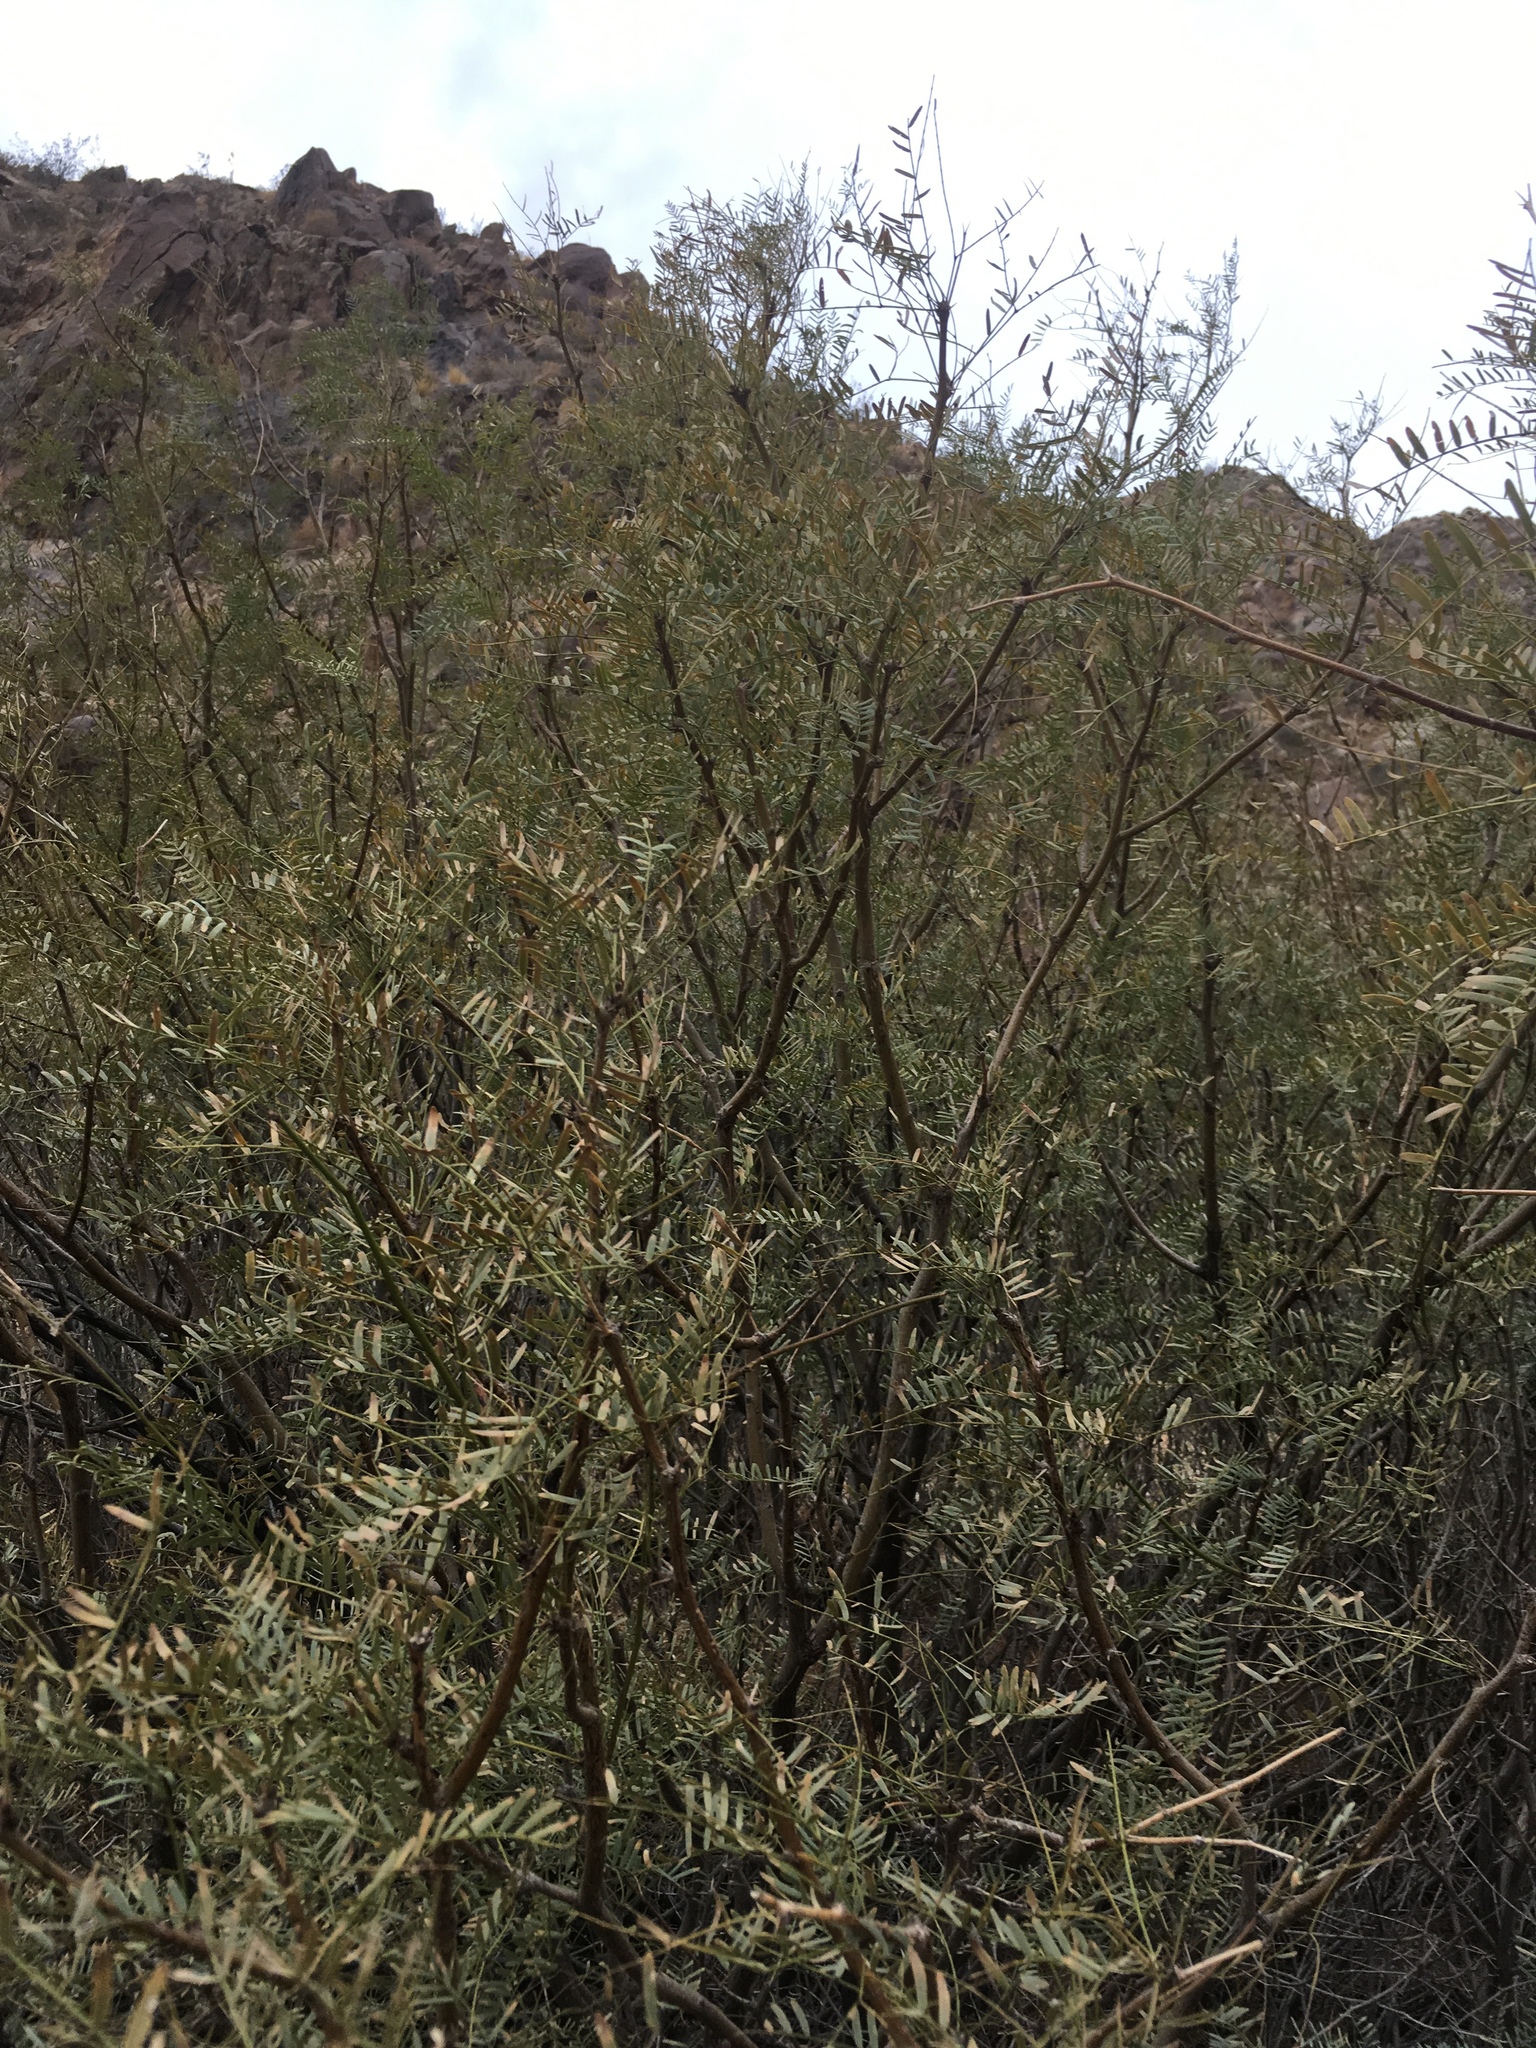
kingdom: Plantae
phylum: Tracheophyta
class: Magnoliopsida
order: Fabales
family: Fabaceae
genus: Prosopis
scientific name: Prosopis pubescens
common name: Screw-bean
